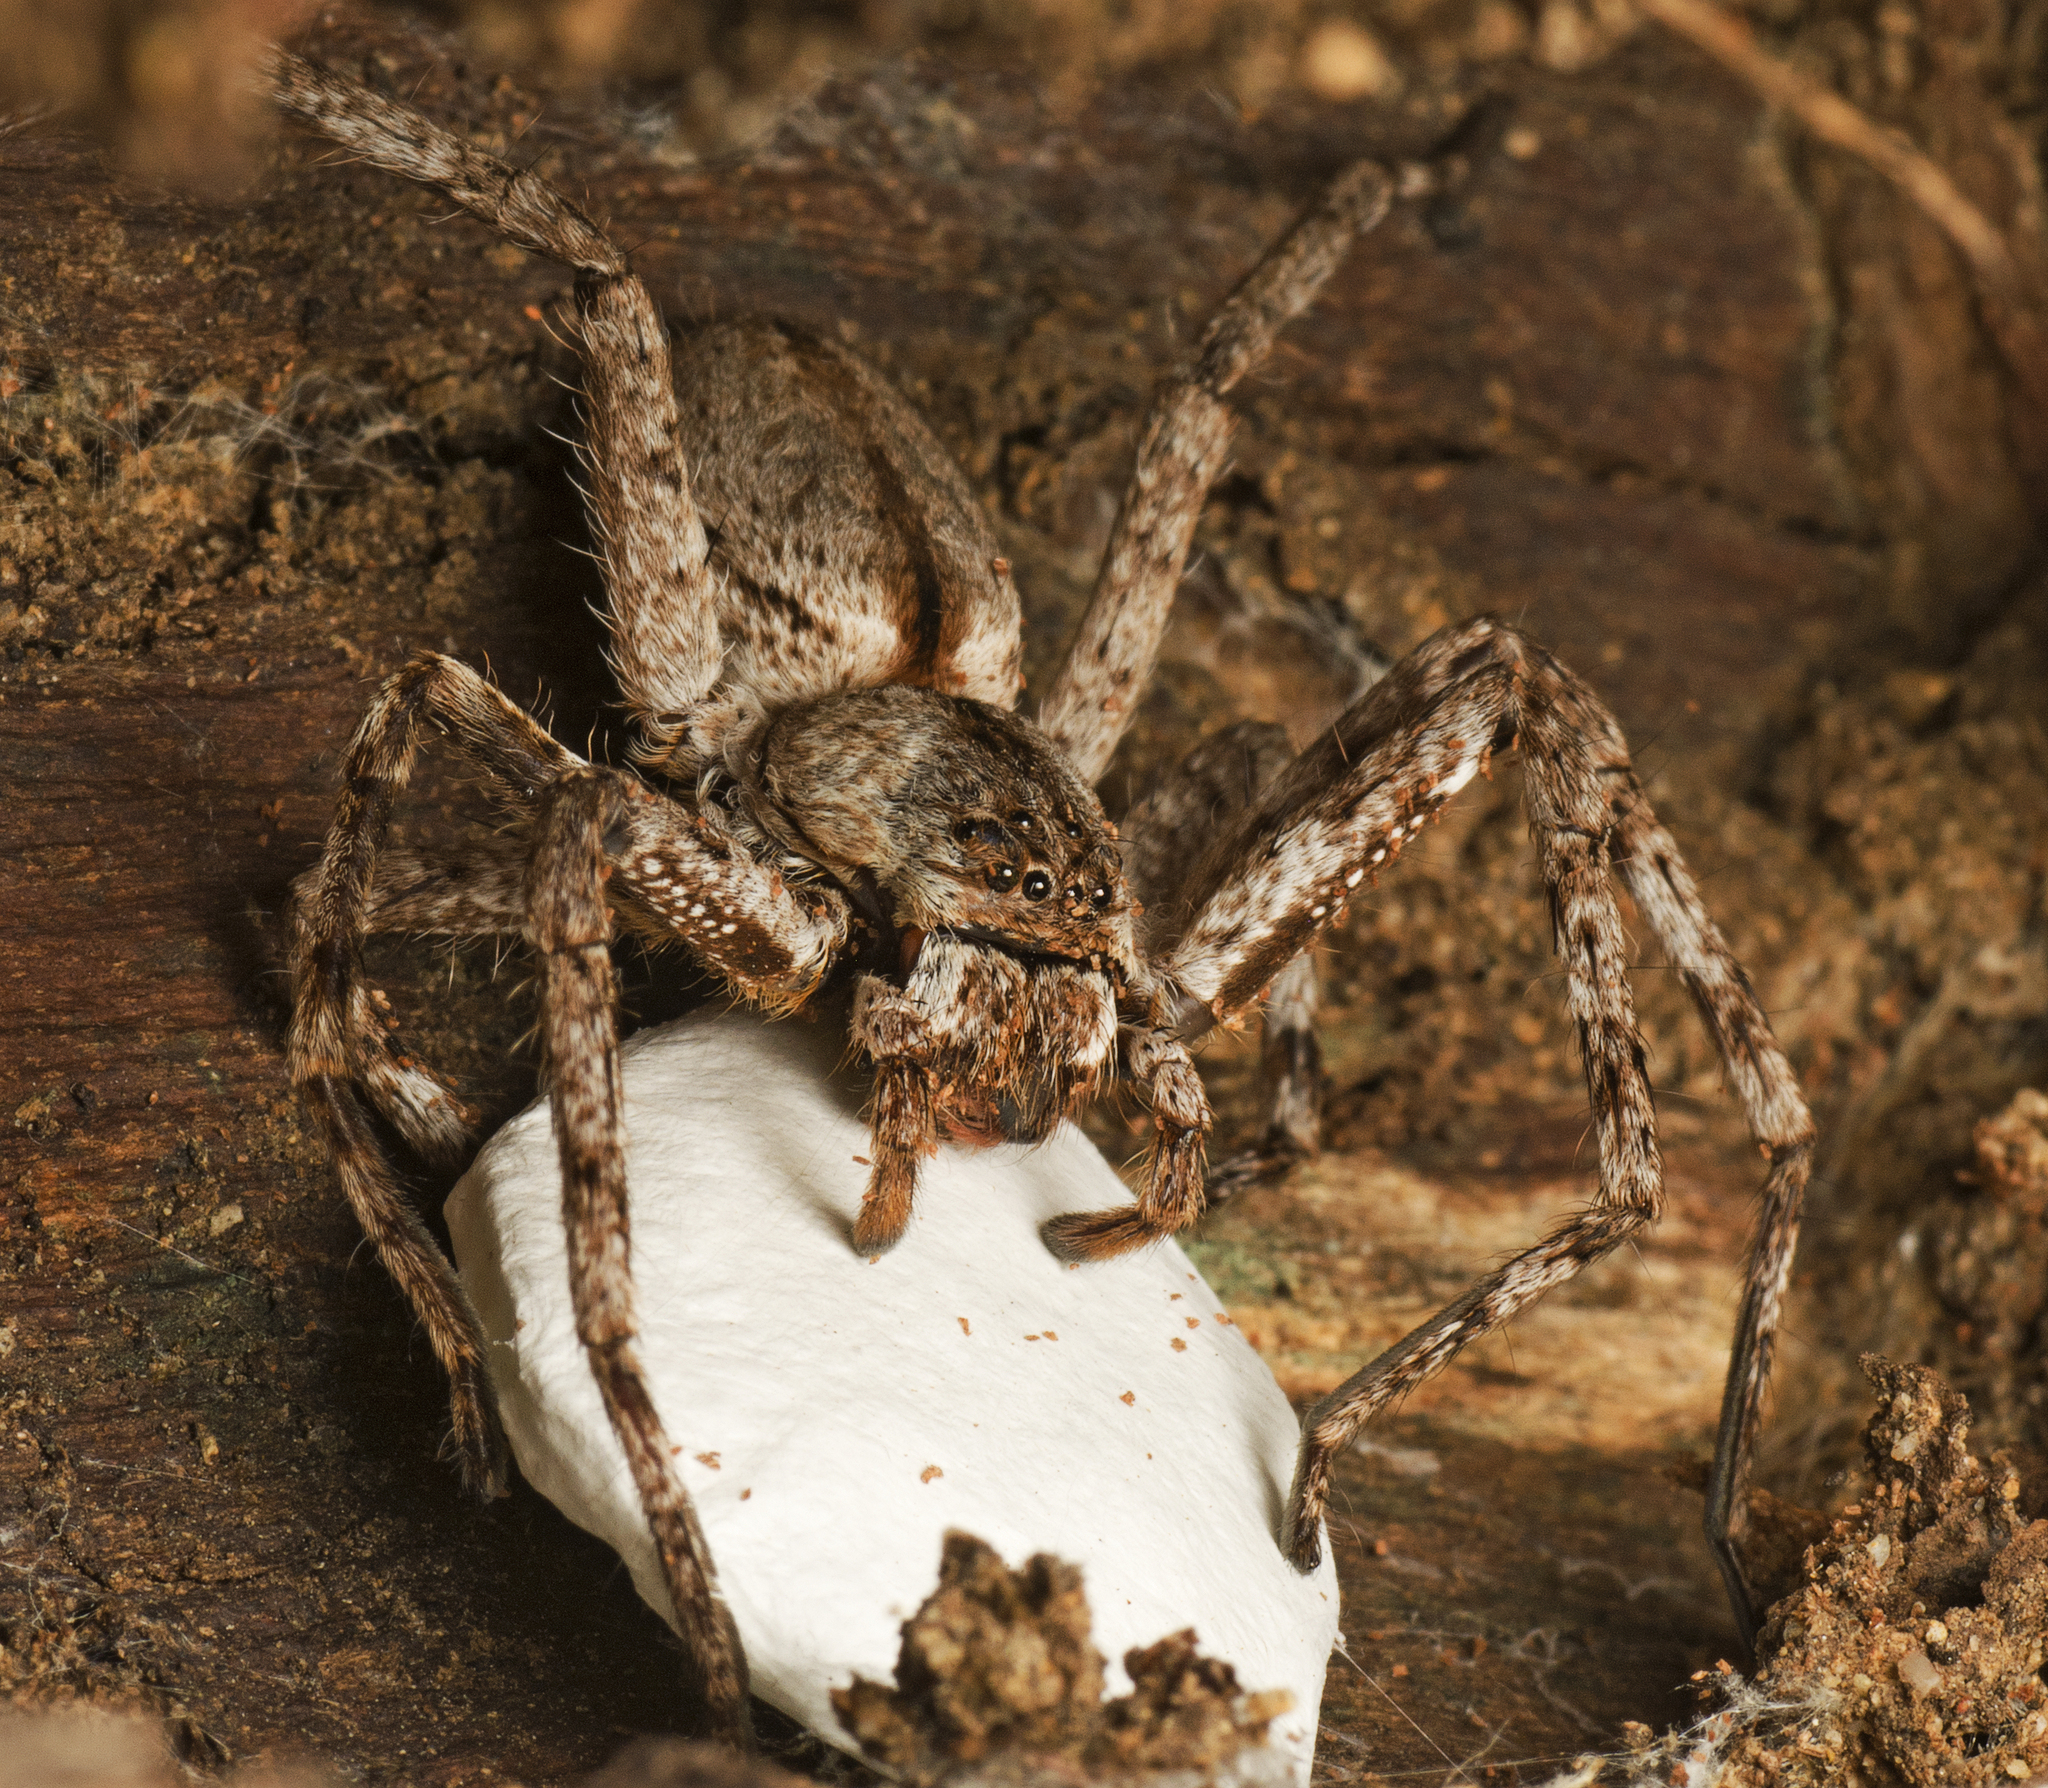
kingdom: Animalia
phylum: Arthropoda
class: Arachnida
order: Araneae
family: Sparassidae
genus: Pediana
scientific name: Pediana regina
